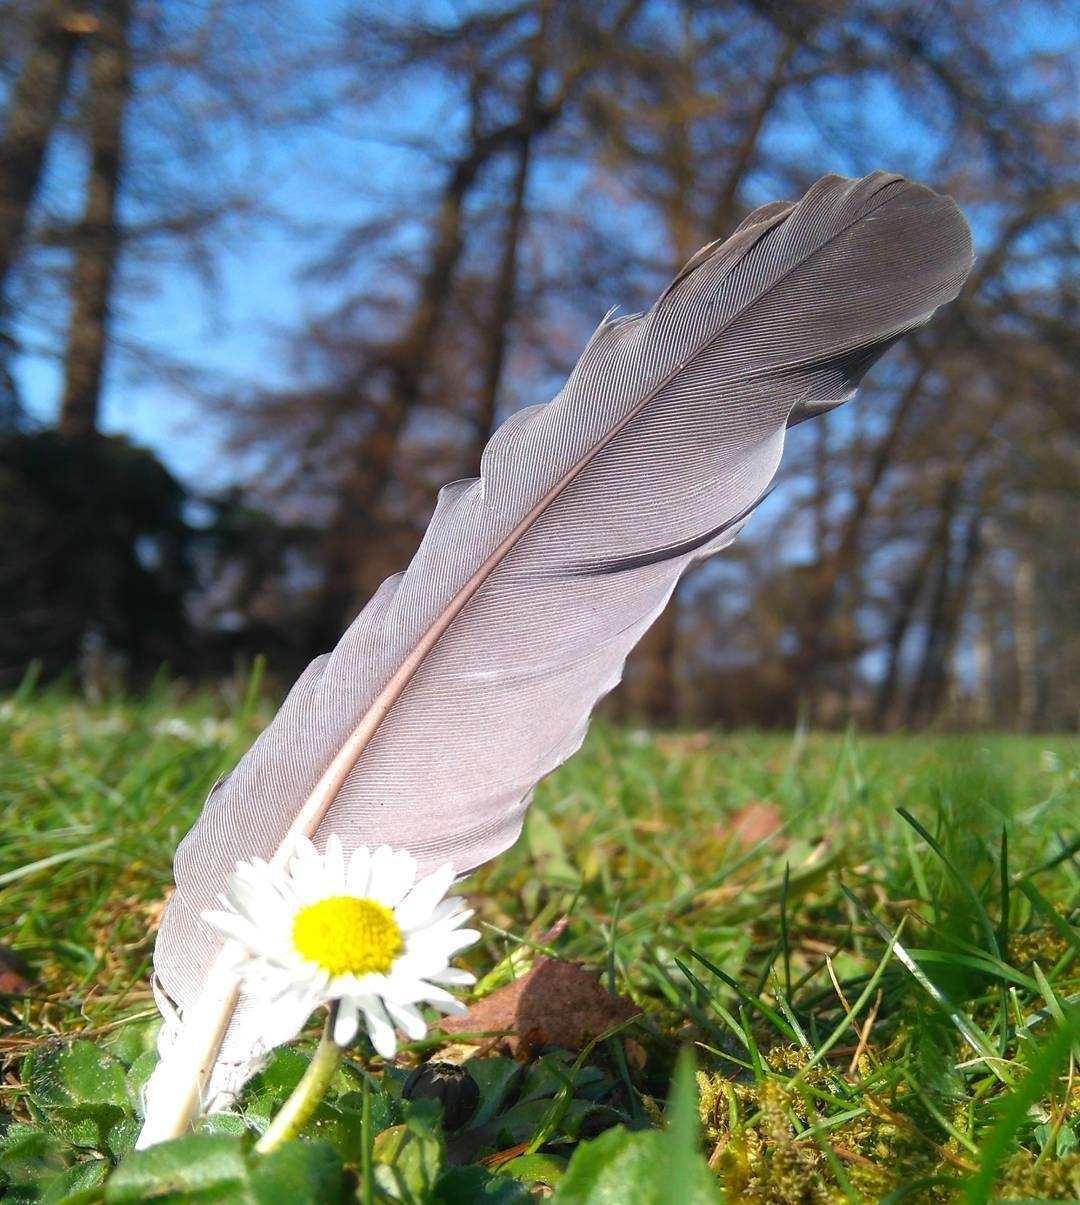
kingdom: Animalia
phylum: Chordata
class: Aves
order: Columbiformes
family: Columbidae
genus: Columba
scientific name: Columba palumbus
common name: Common wood pigeon
